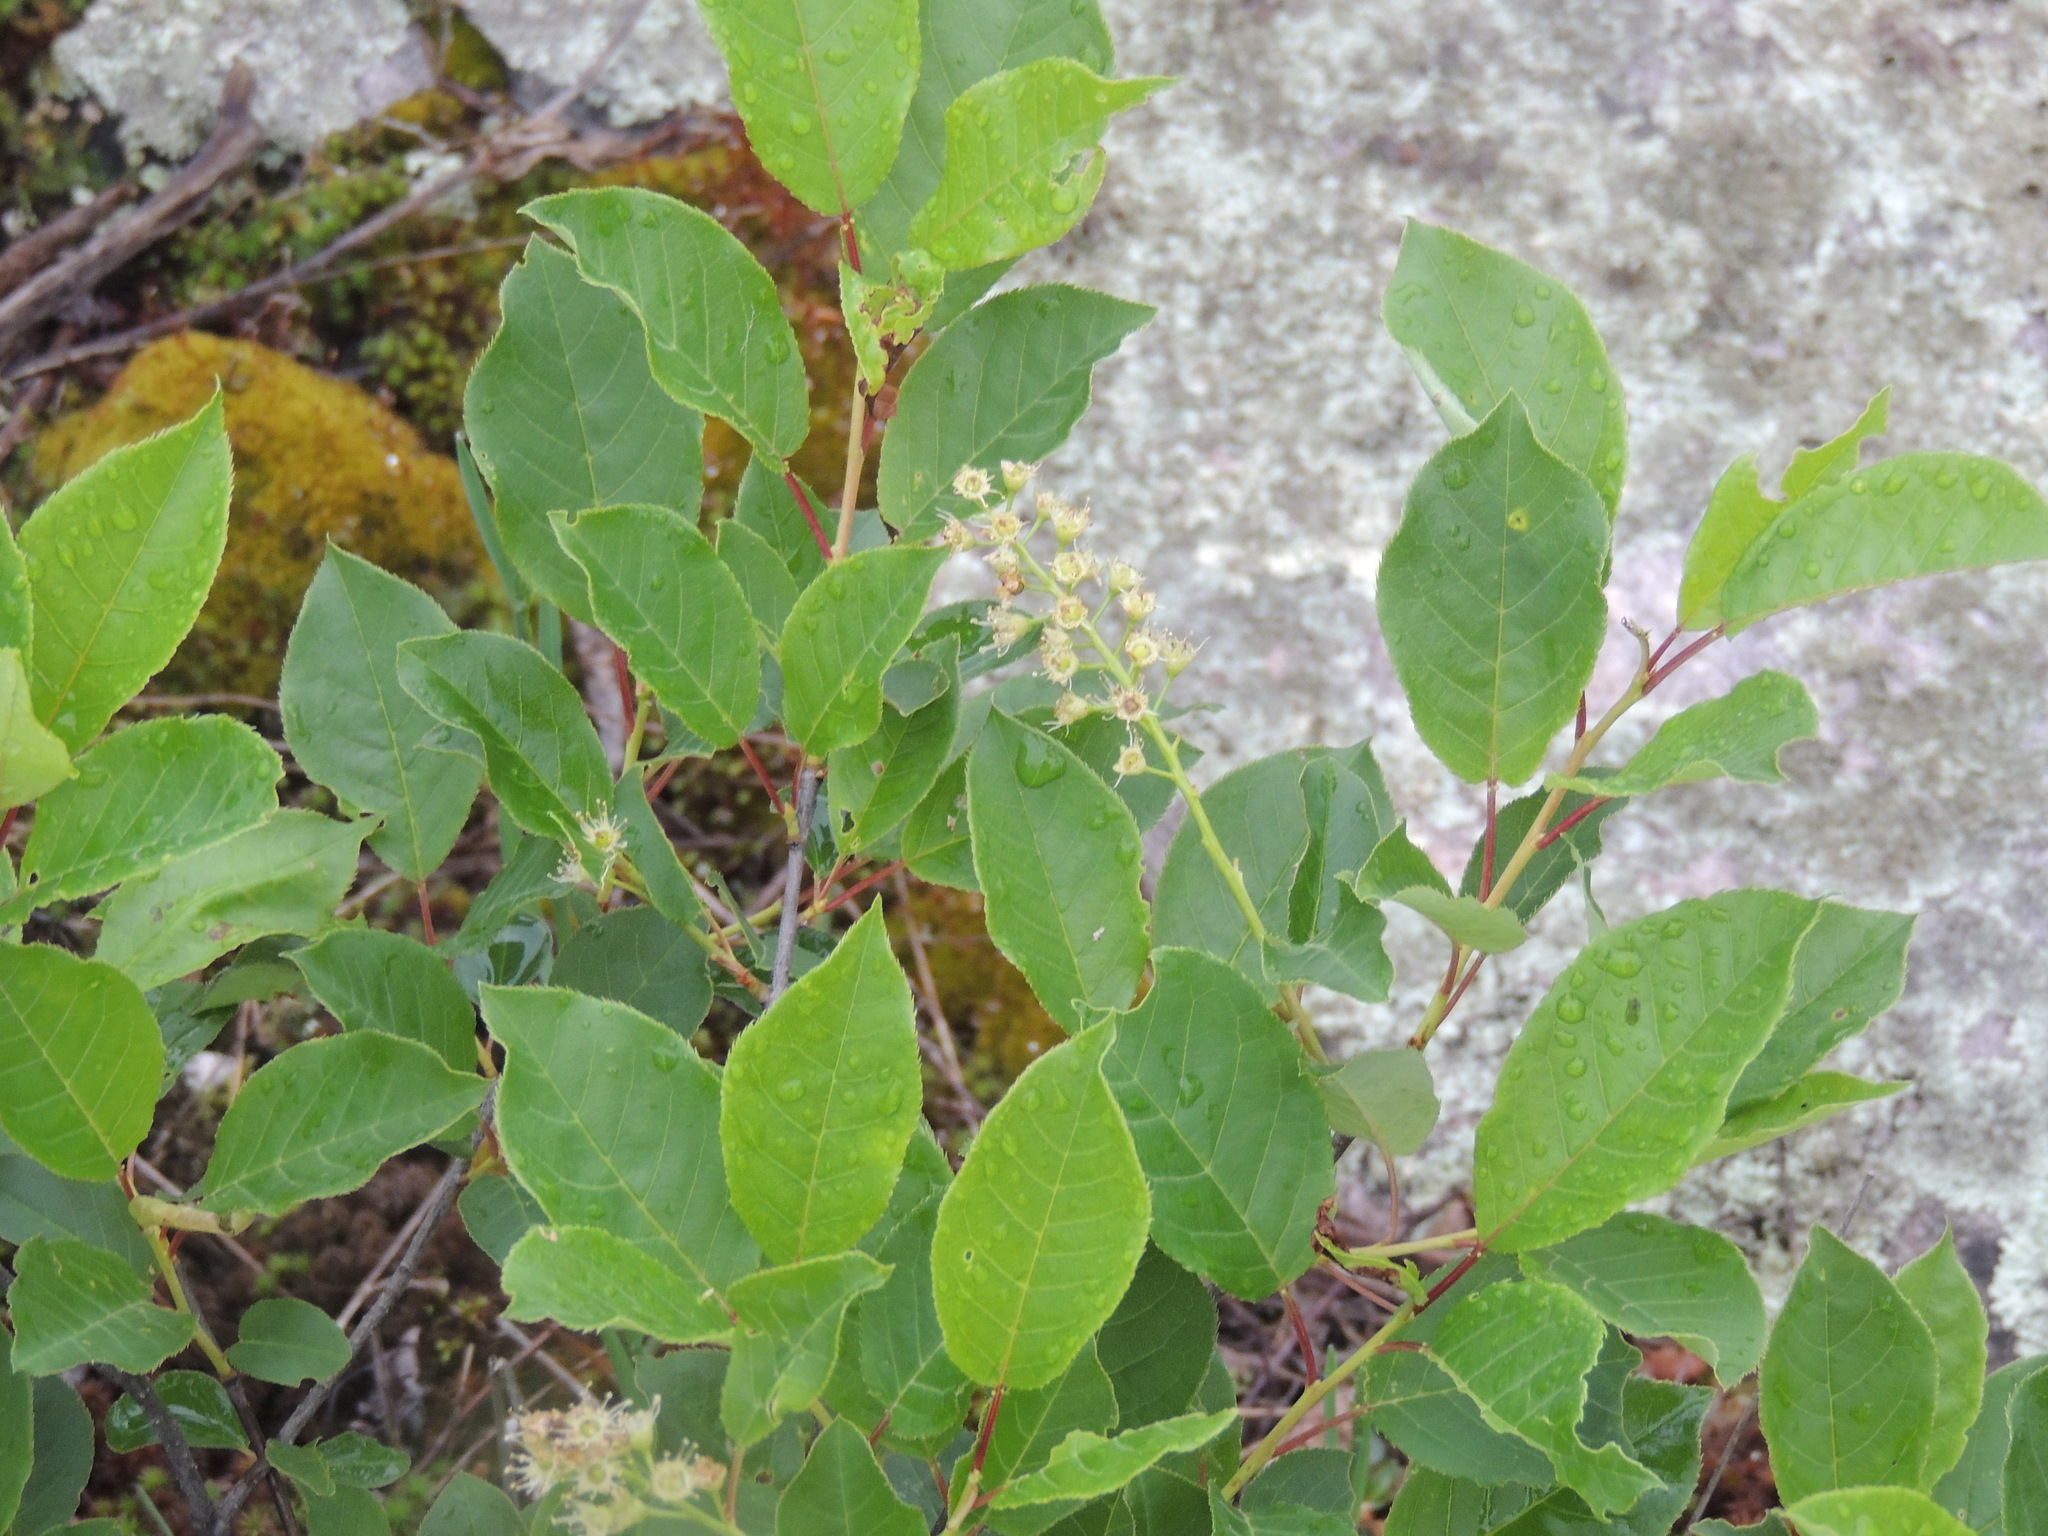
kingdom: Plantae
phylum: Tracheophyta
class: Magnoliopsida
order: Rosales
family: Rosaceae
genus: Prunus
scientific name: Prunus virginiana
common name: Chokecherry
